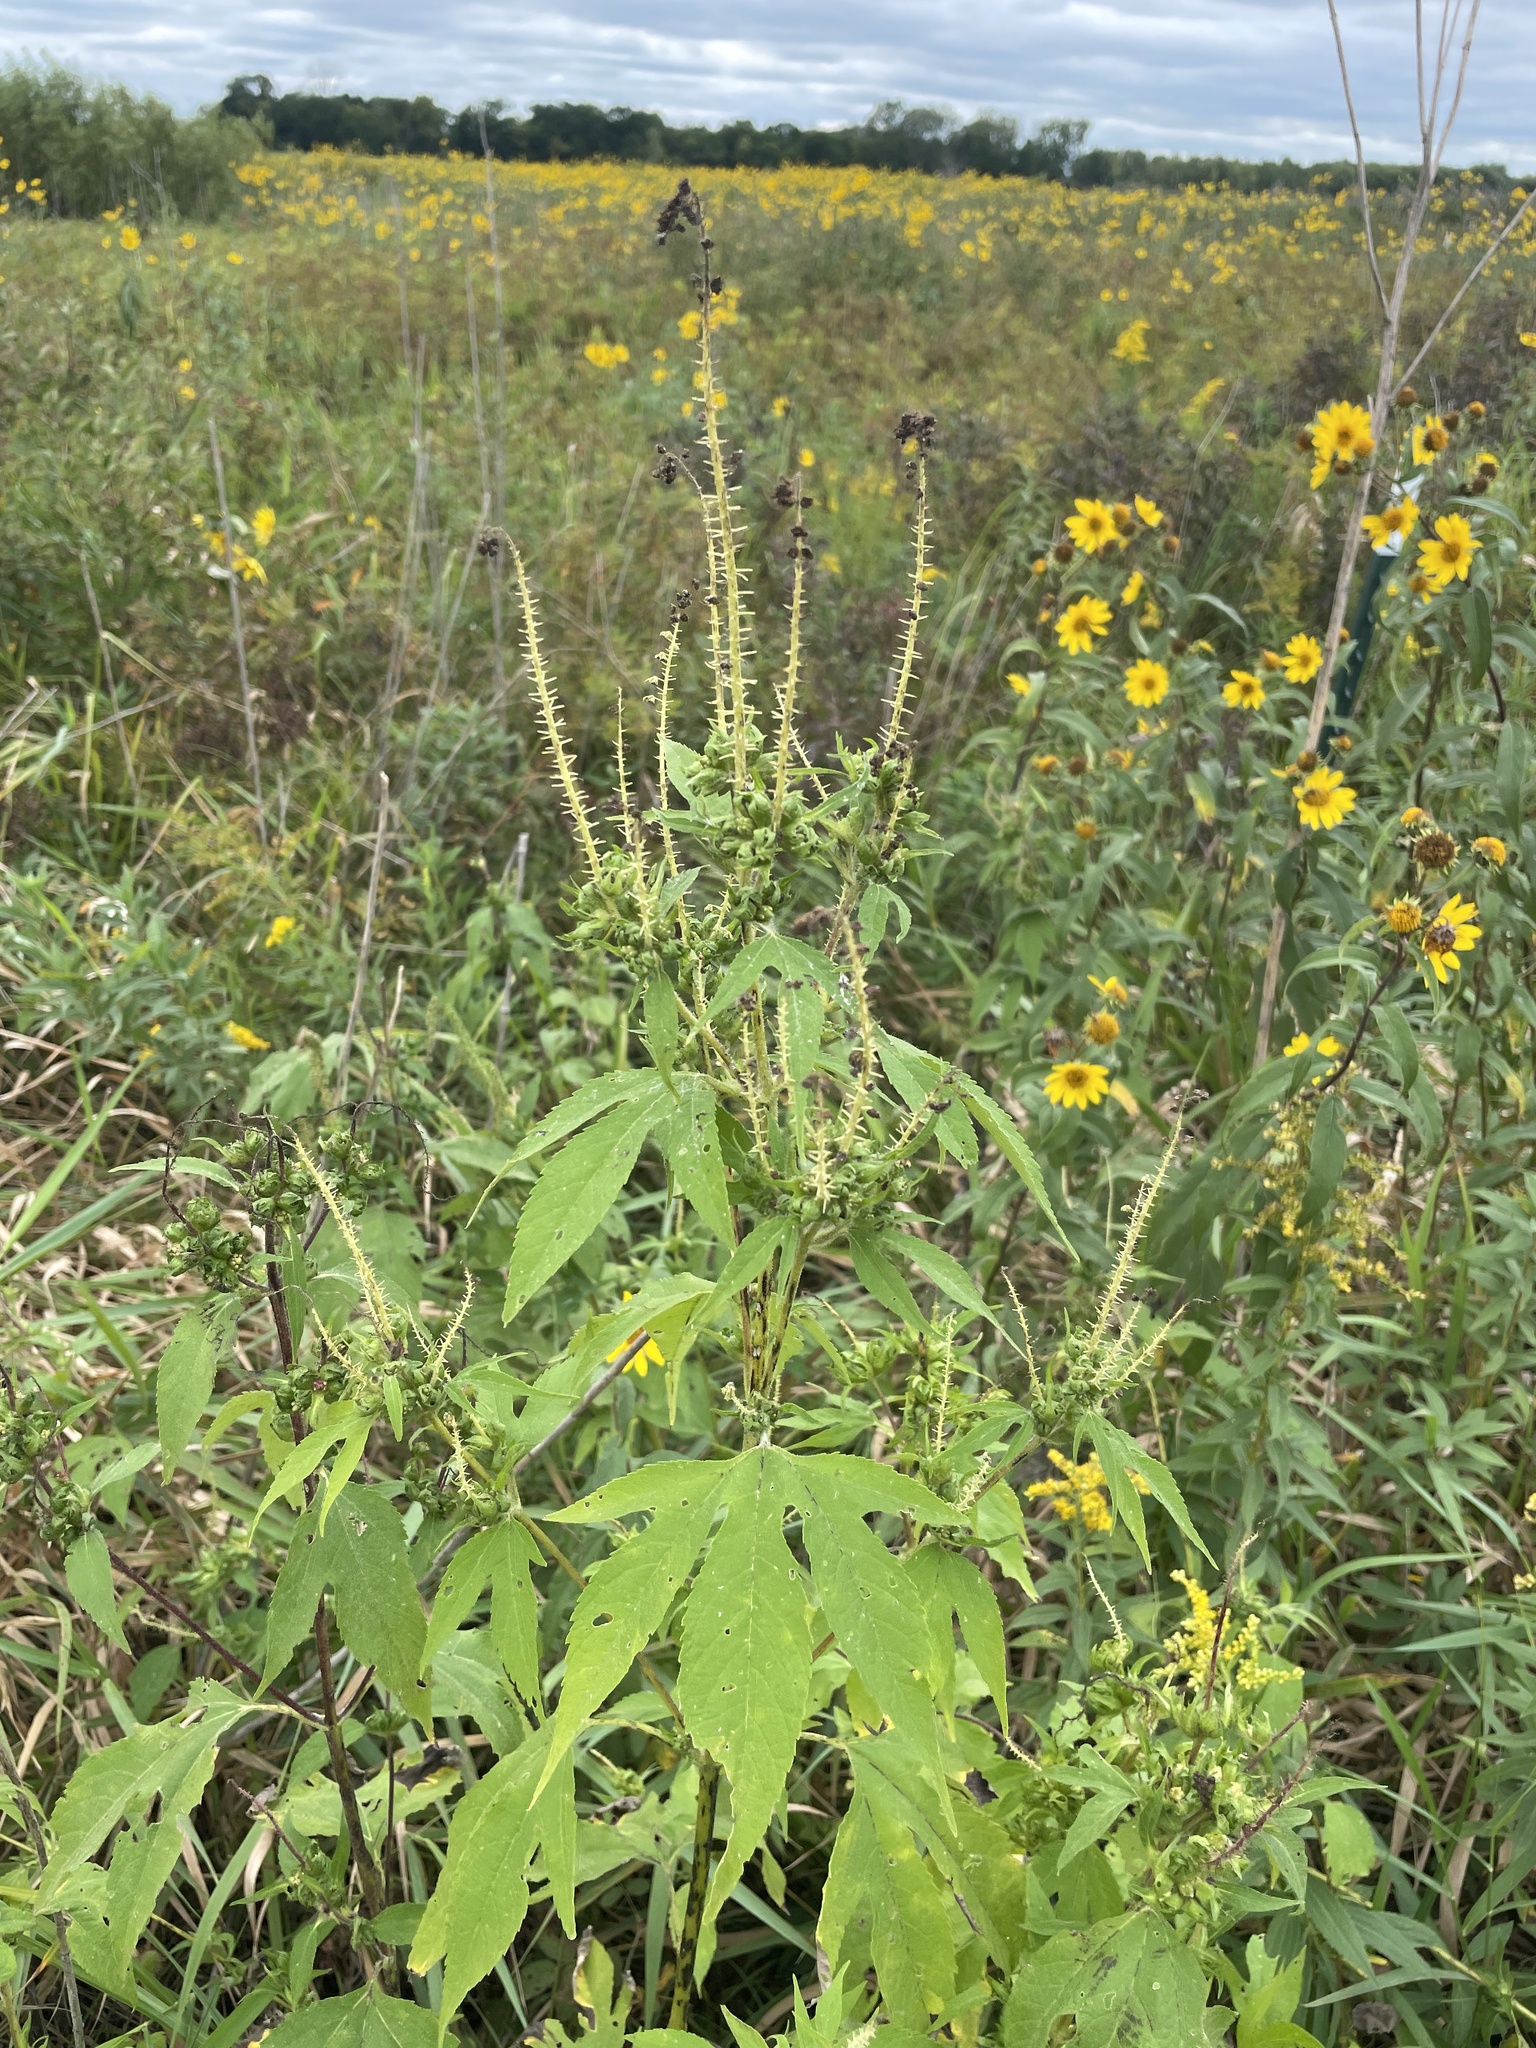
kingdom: Plantae
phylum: Tracheophyta
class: Magnoliopsida
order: Asterales
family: Asteraceae
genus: Ambrosia
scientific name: Ambrosia trifida
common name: Giant ragweed
